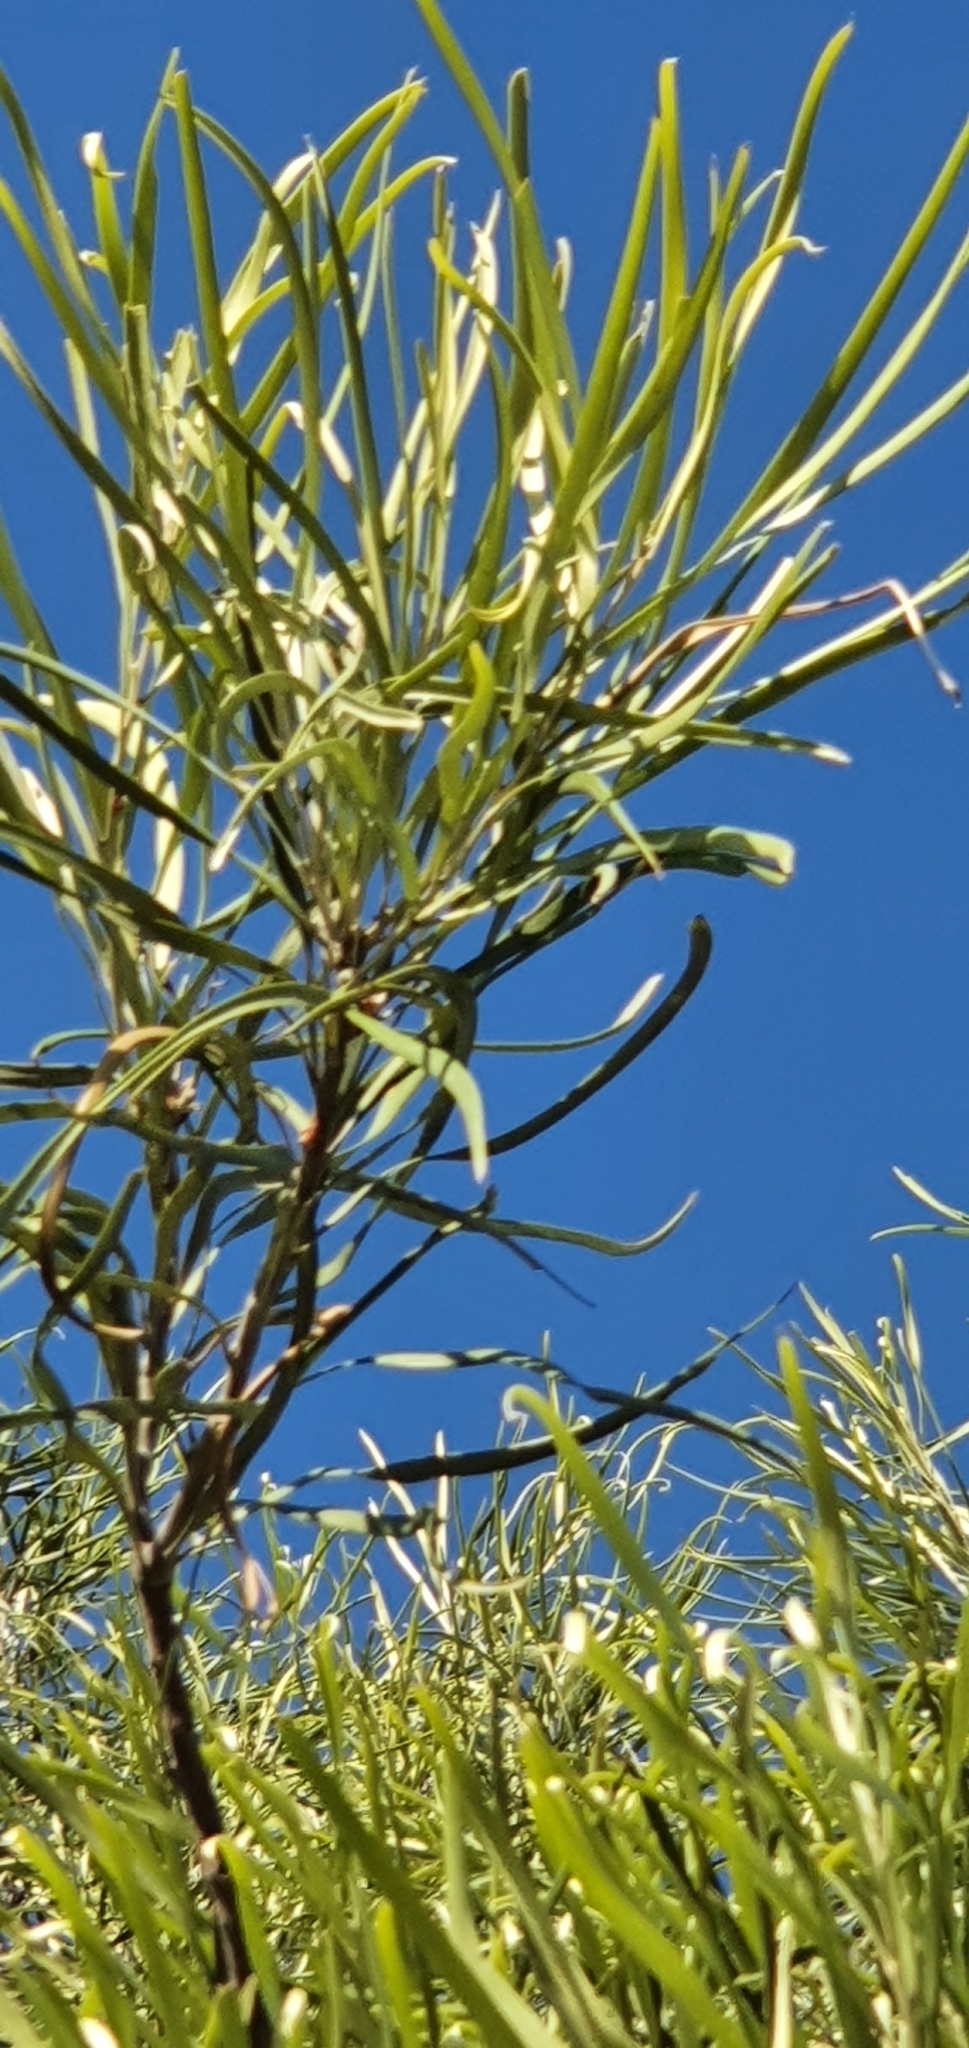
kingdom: Plantae
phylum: Tracheophyta
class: Magnoliopsida
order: Proteales
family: Proteaceae
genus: Grevillea
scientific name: Grevillea striata
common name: Beefwood
